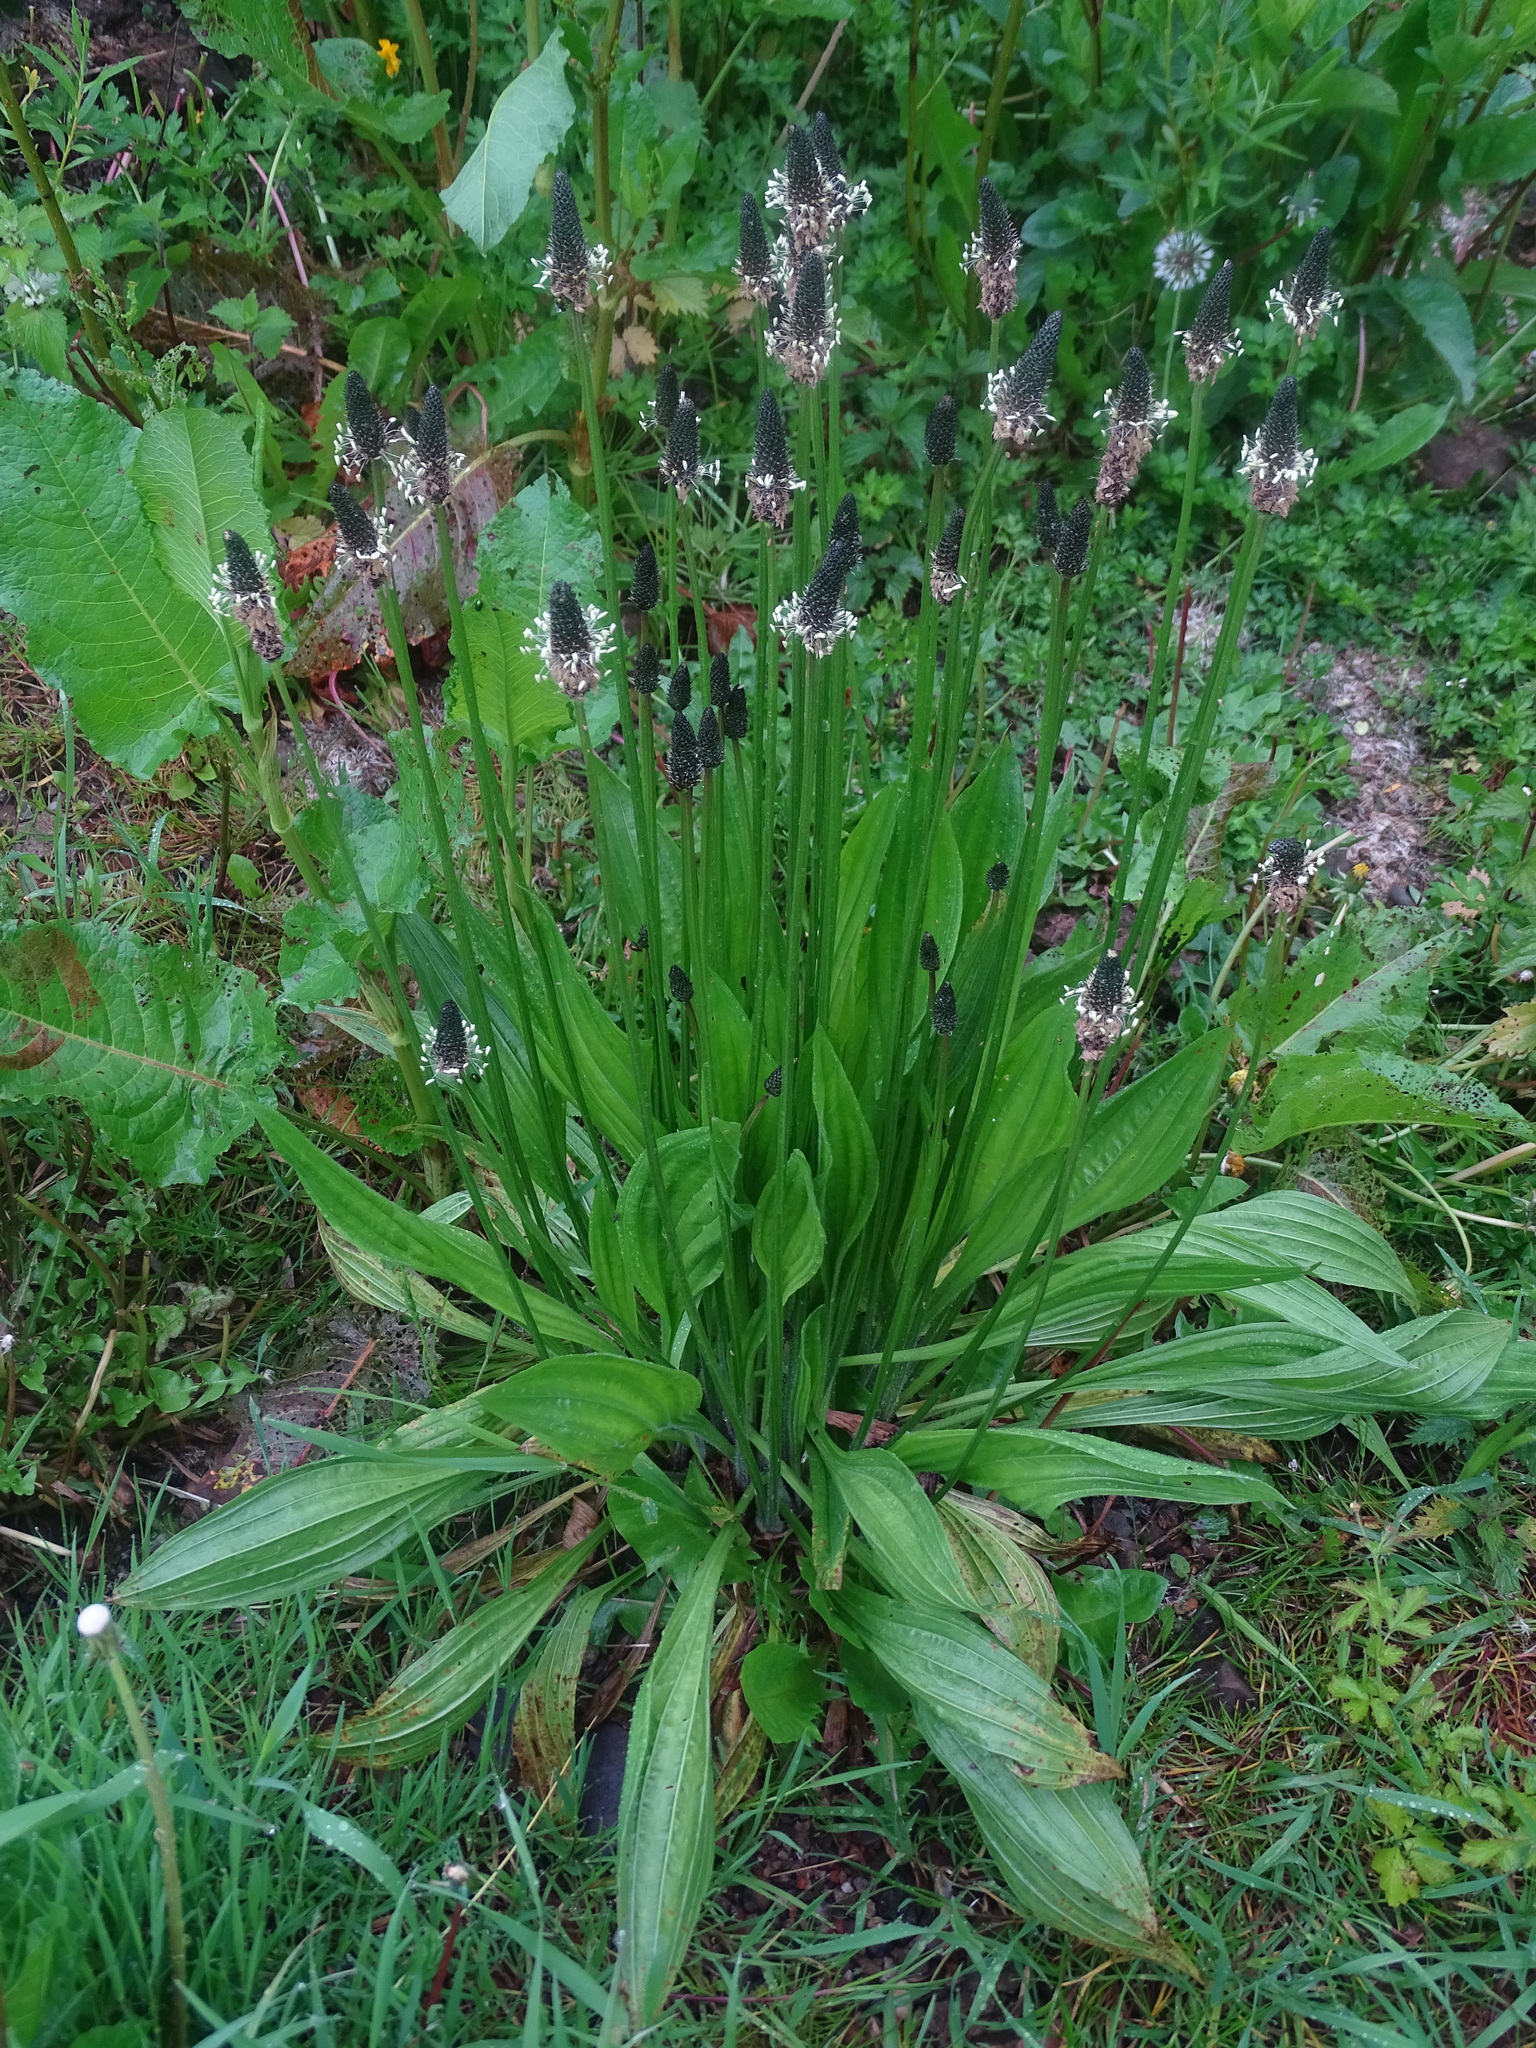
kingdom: Plantae
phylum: Tracheophyta
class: Magnoliopsida
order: Lamiales
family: Plantaginaceae
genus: Plantago
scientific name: Plantago lanceolata
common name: Ribwort plantain
